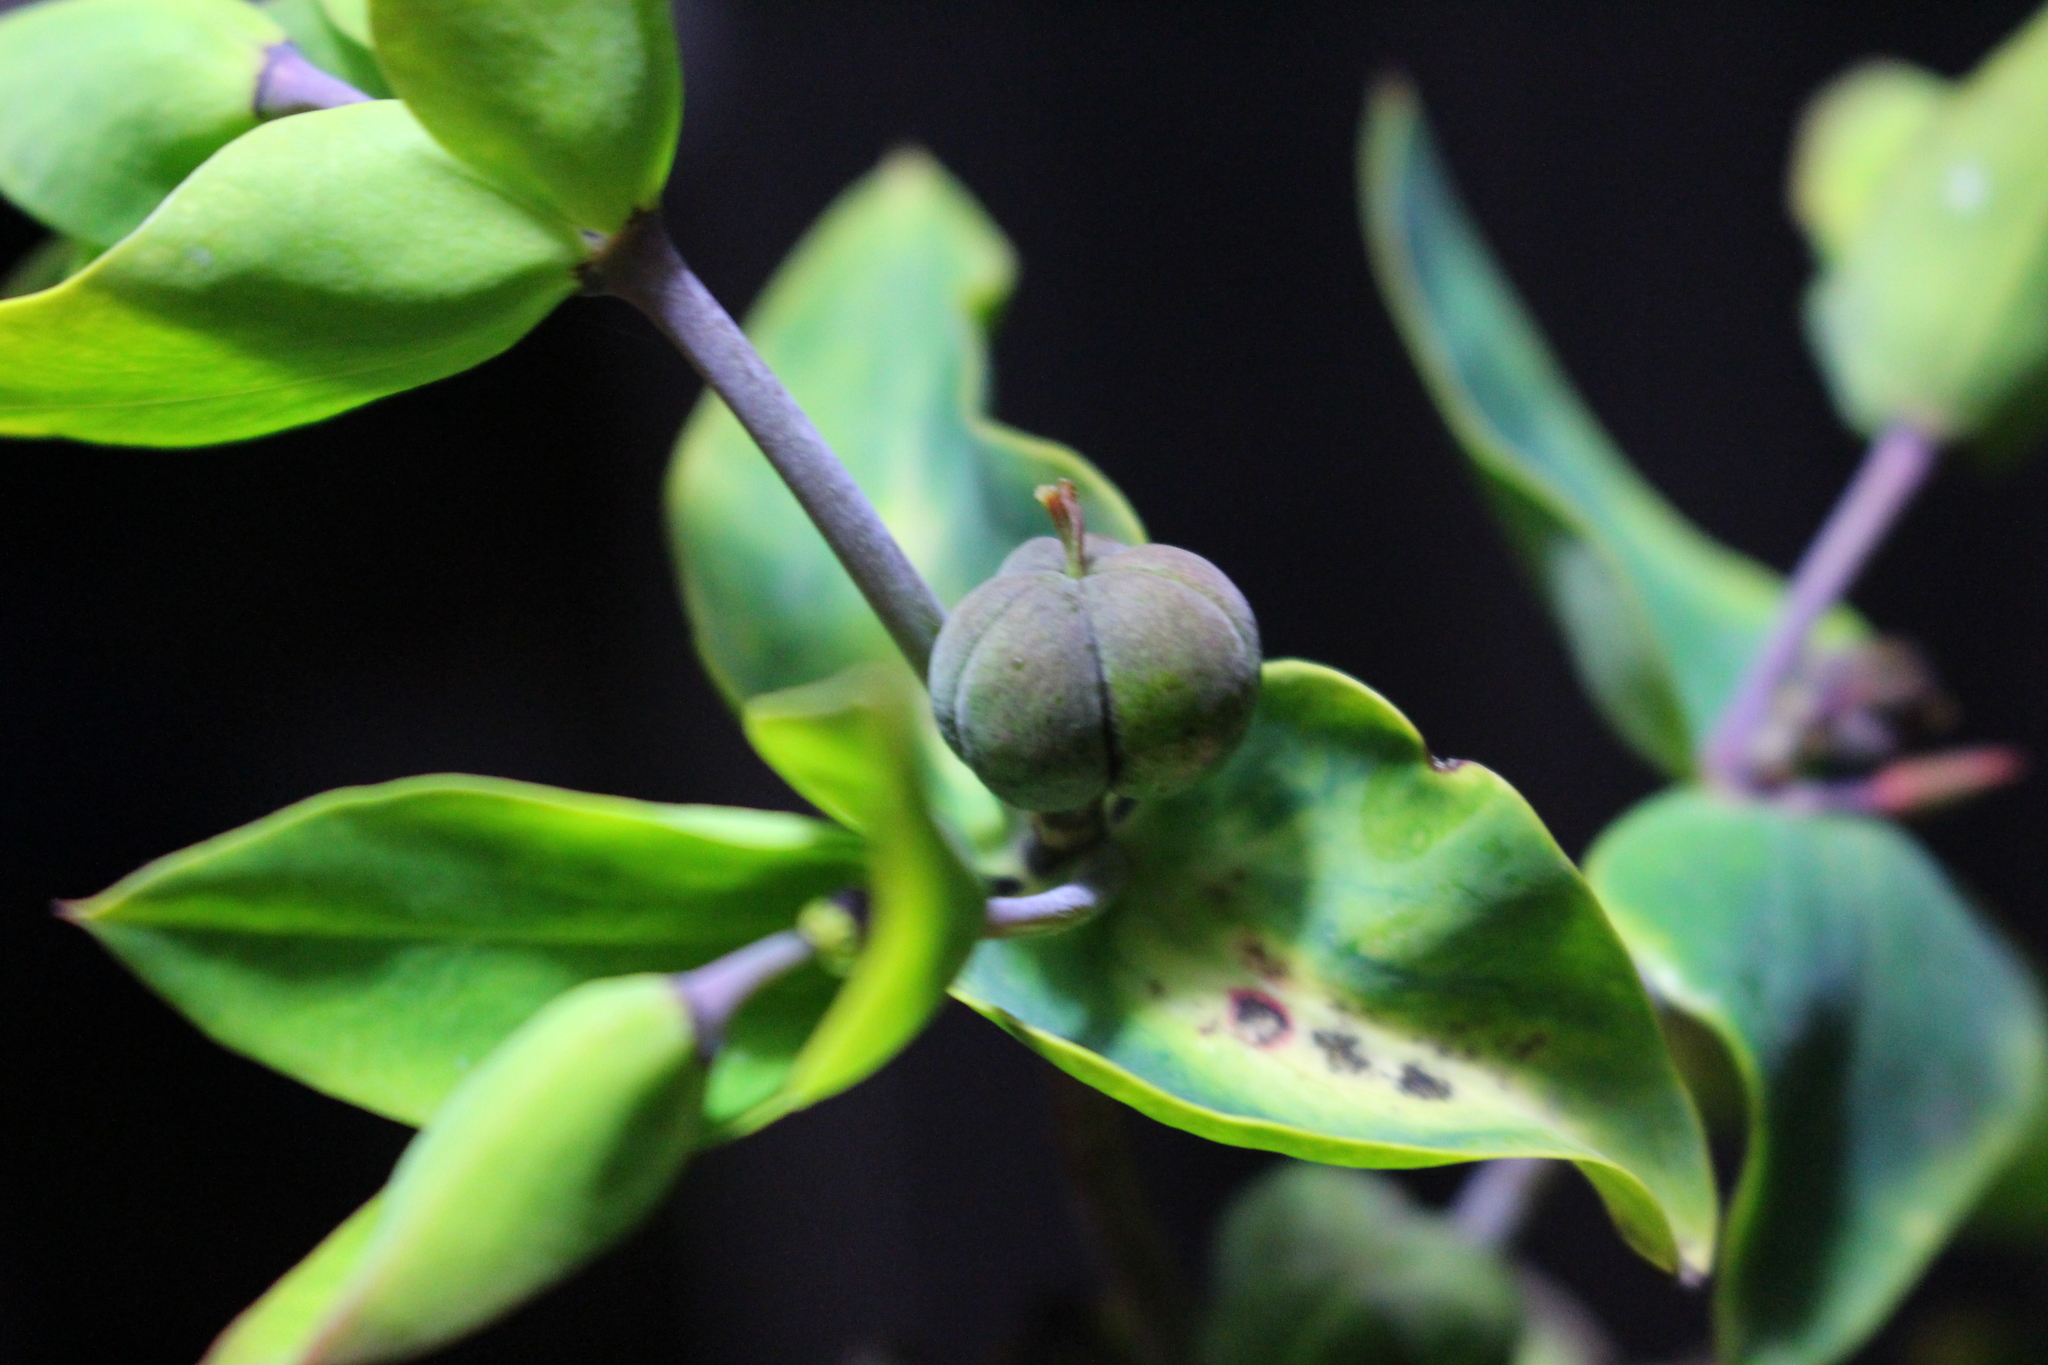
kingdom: Plantae
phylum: Tracheophyta
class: Magnoliopsida
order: Malpighiales
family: Euphorbiaceae
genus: Euphorbia
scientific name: Euphorbia lathyris
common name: Caper spurge
